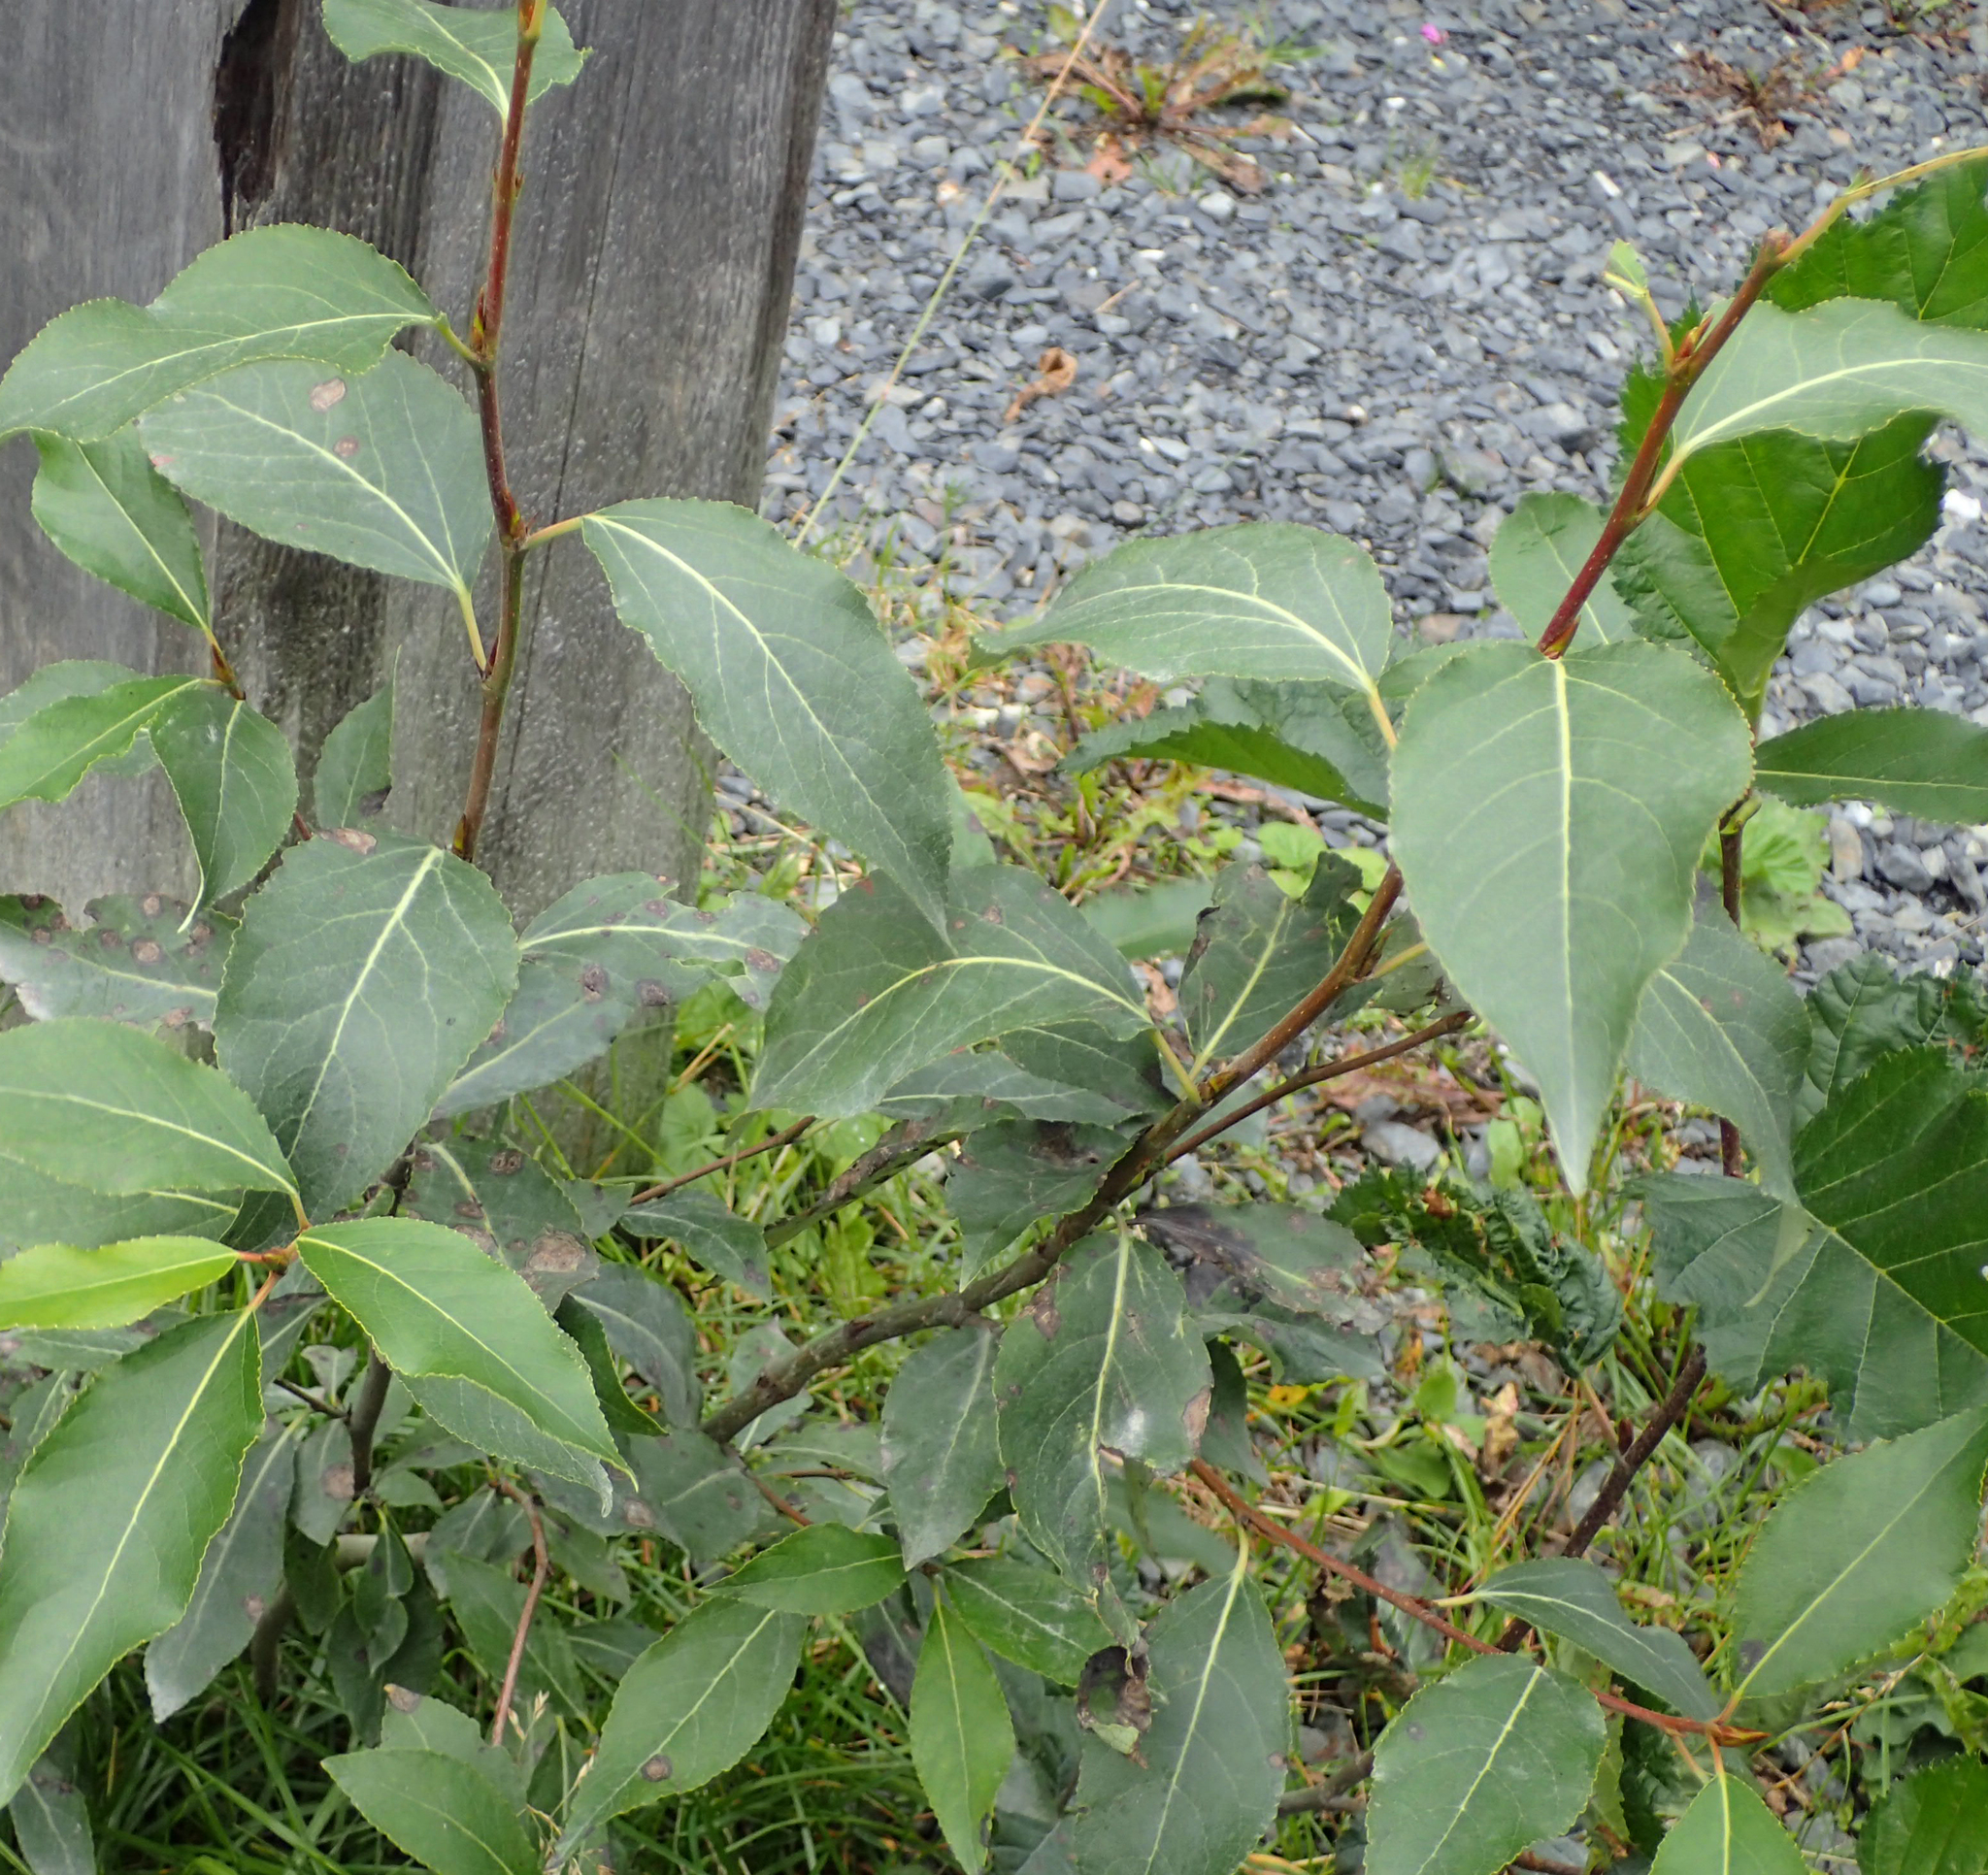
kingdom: Plantae
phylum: Tracheophyta
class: Magnoliopsida
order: Malpighiales
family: Salicaceae
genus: Populus
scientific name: Populus trichocarpa
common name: Black cottonwood
